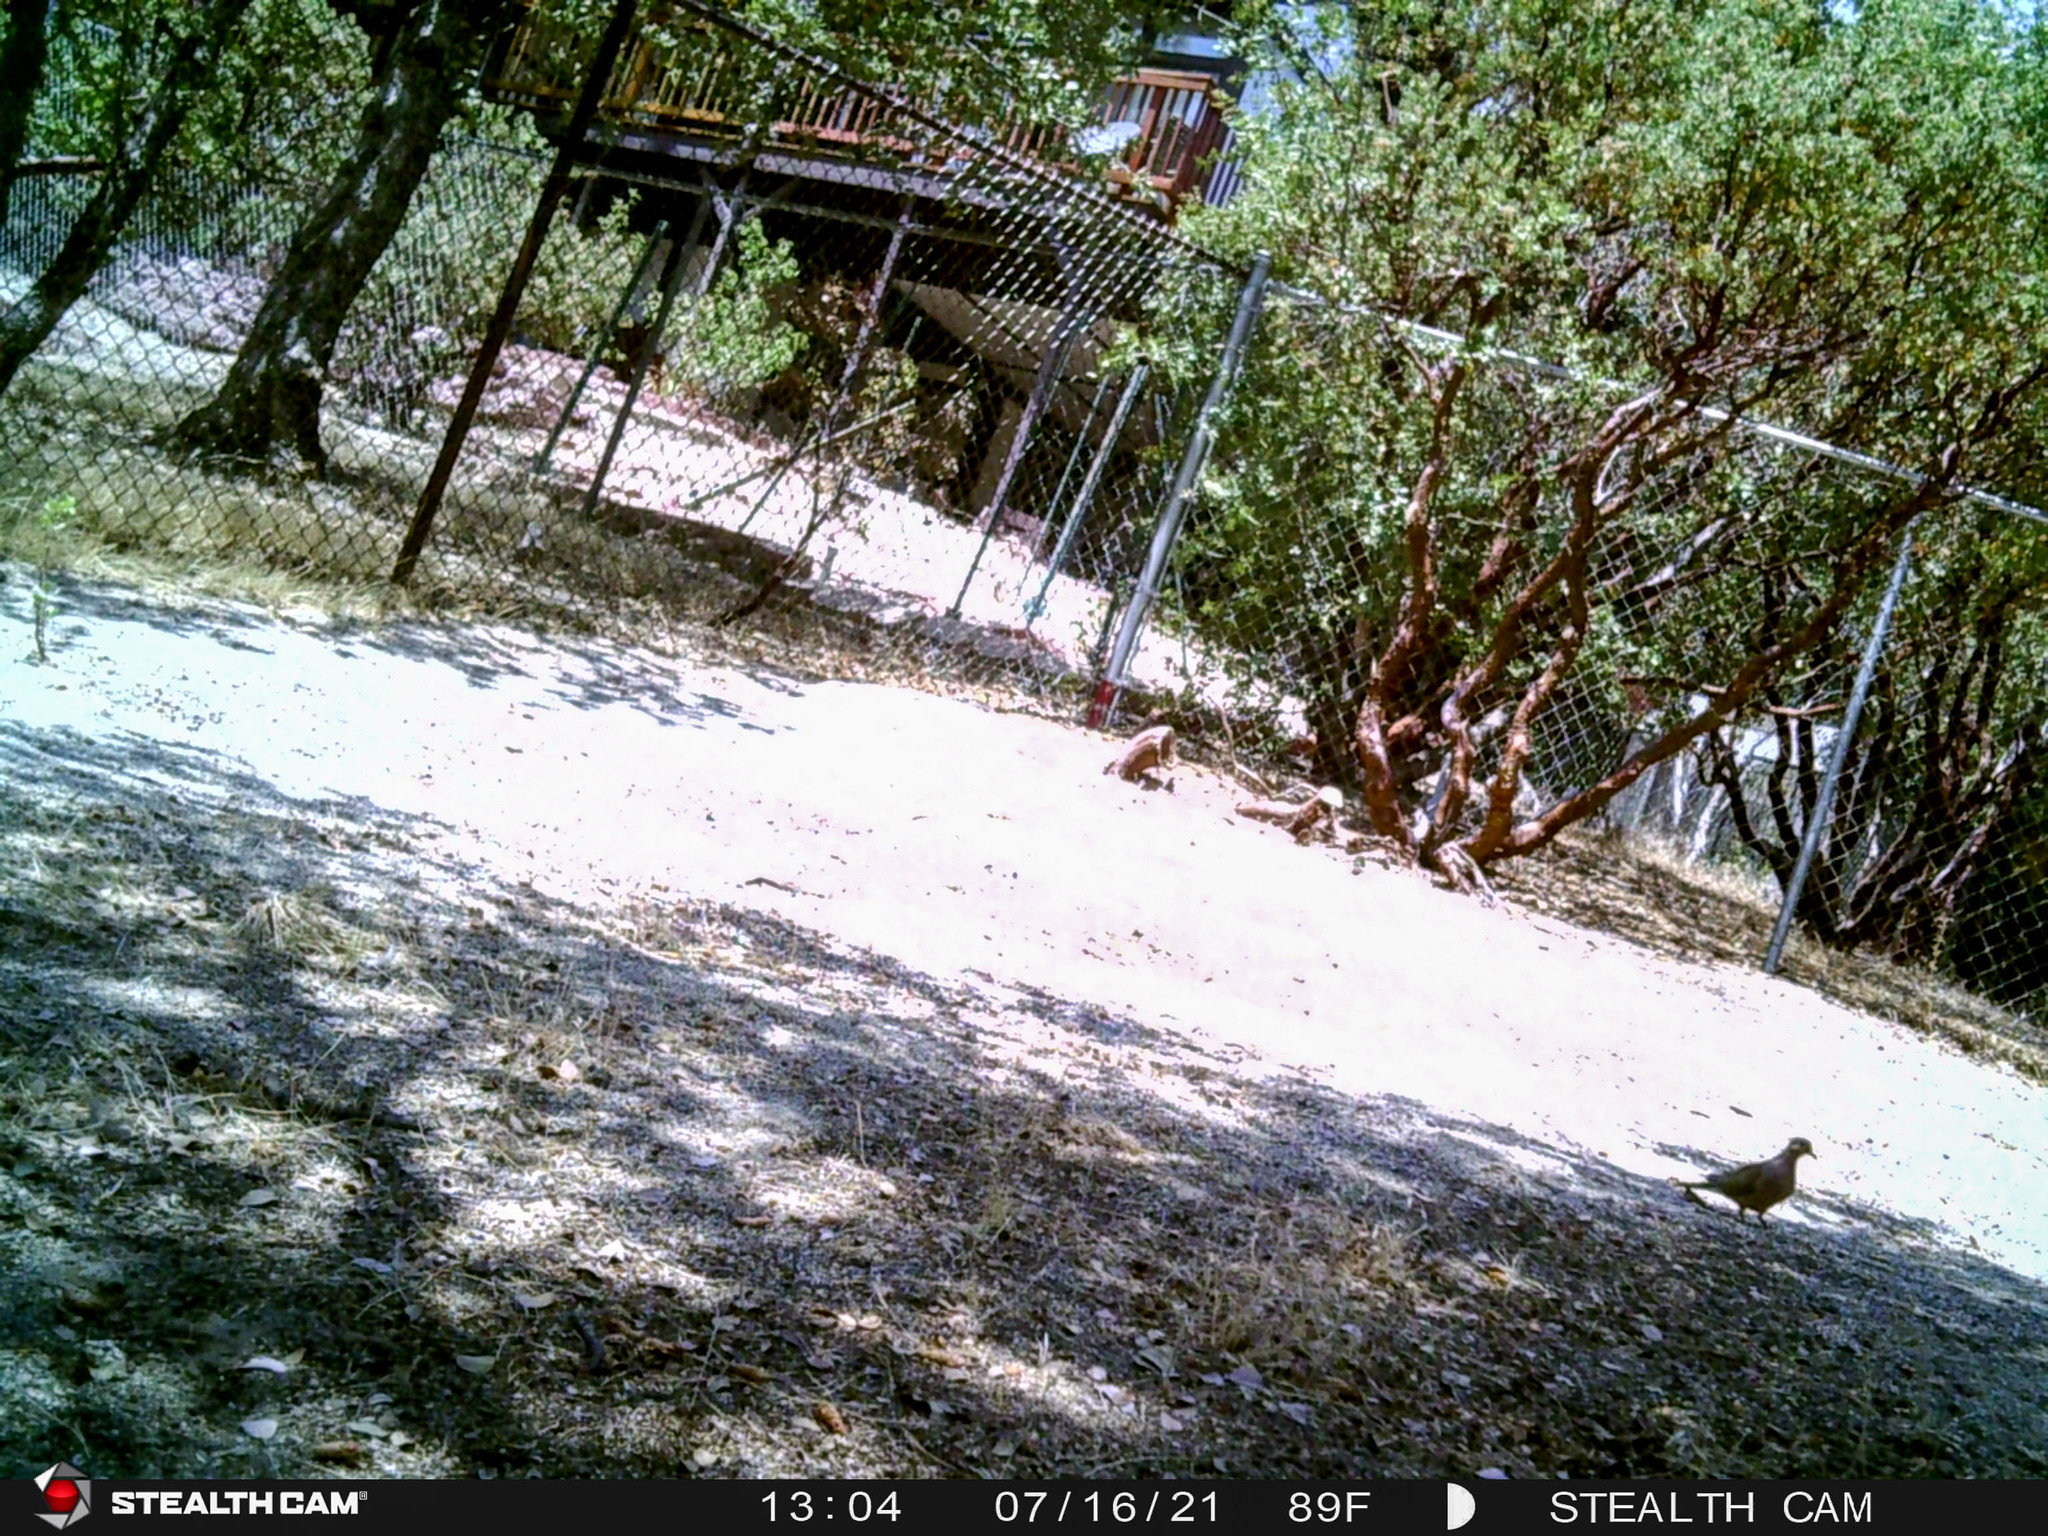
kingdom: Animalia
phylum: Chordata
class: Aves
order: Columbiformes
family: Columbidae
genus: Zenaida
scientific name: Zenaida macroura
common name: Mourning dove
